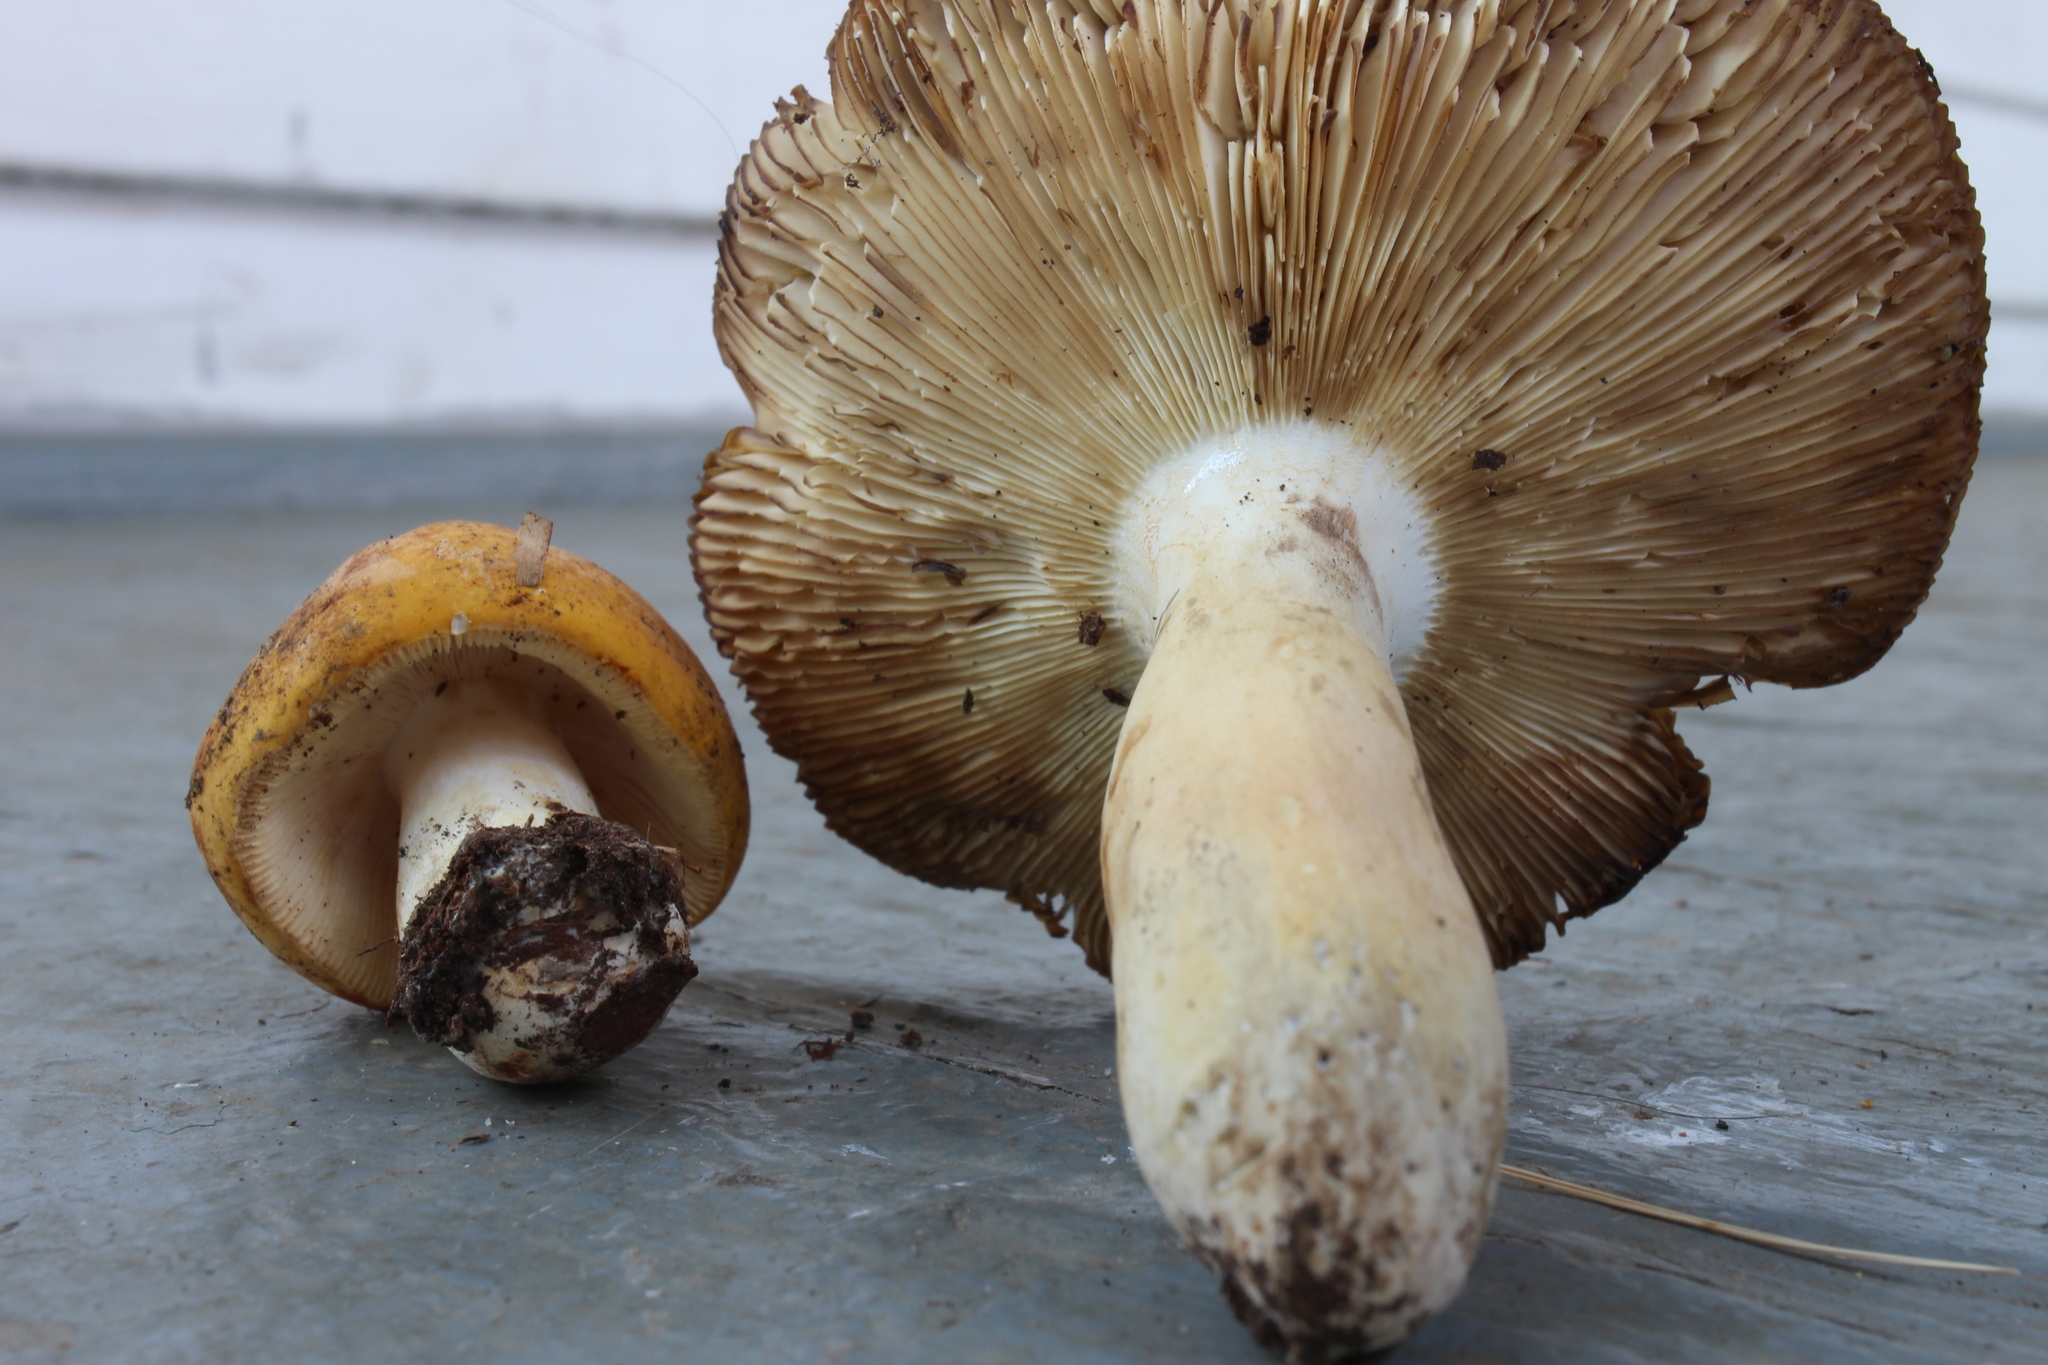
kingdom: Fungi
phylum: Basidiomycota
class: Agaricomycetes
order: Russulales
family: Russulaceae
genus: Russula
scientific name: Russula ochroleucoides
